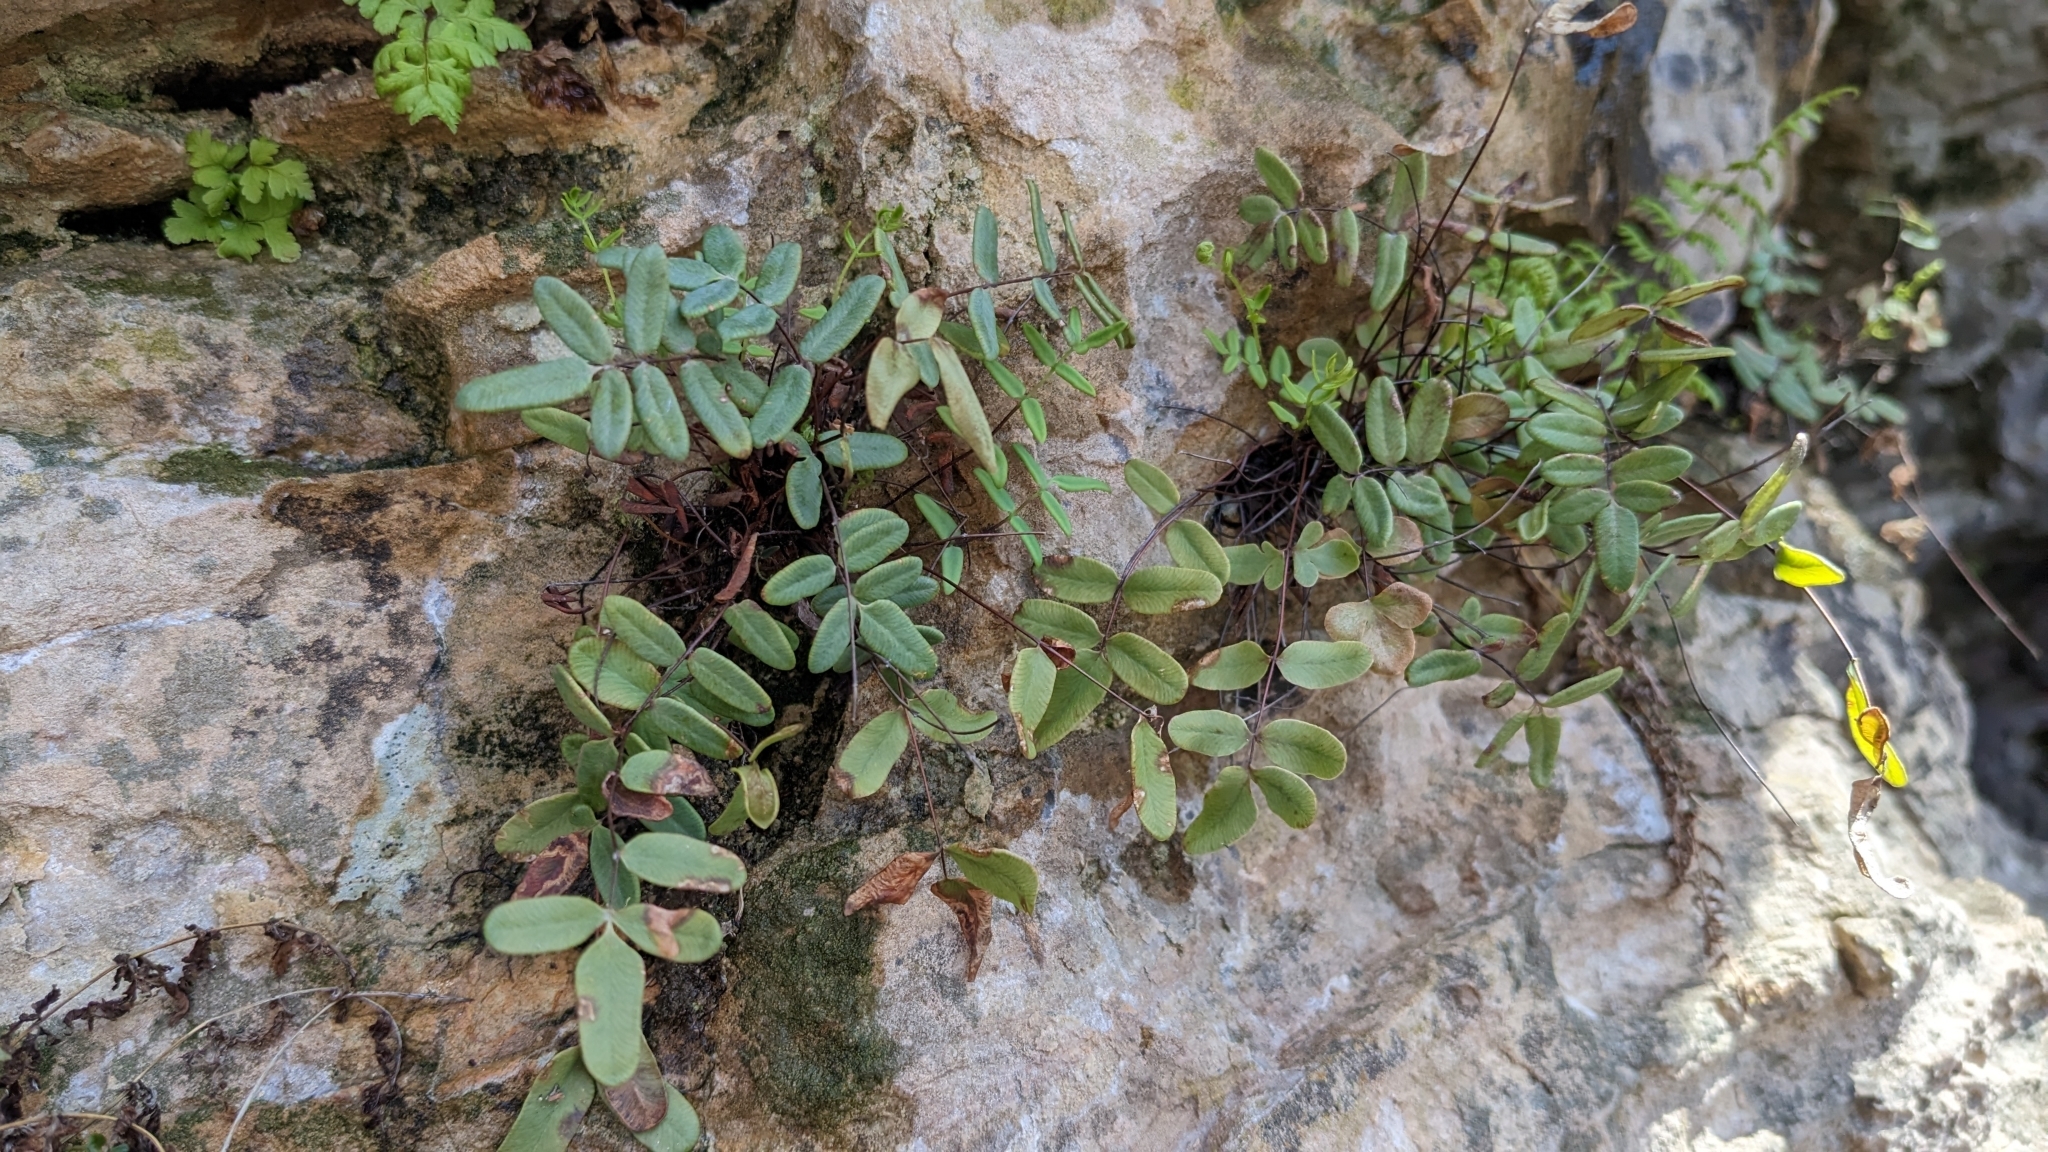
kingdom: Plantae
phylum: Tracheophyta
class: Polypodiopsida
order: Polypodiales
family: Pteridaceae
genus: Pellaea
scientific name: Pellaea glabella
